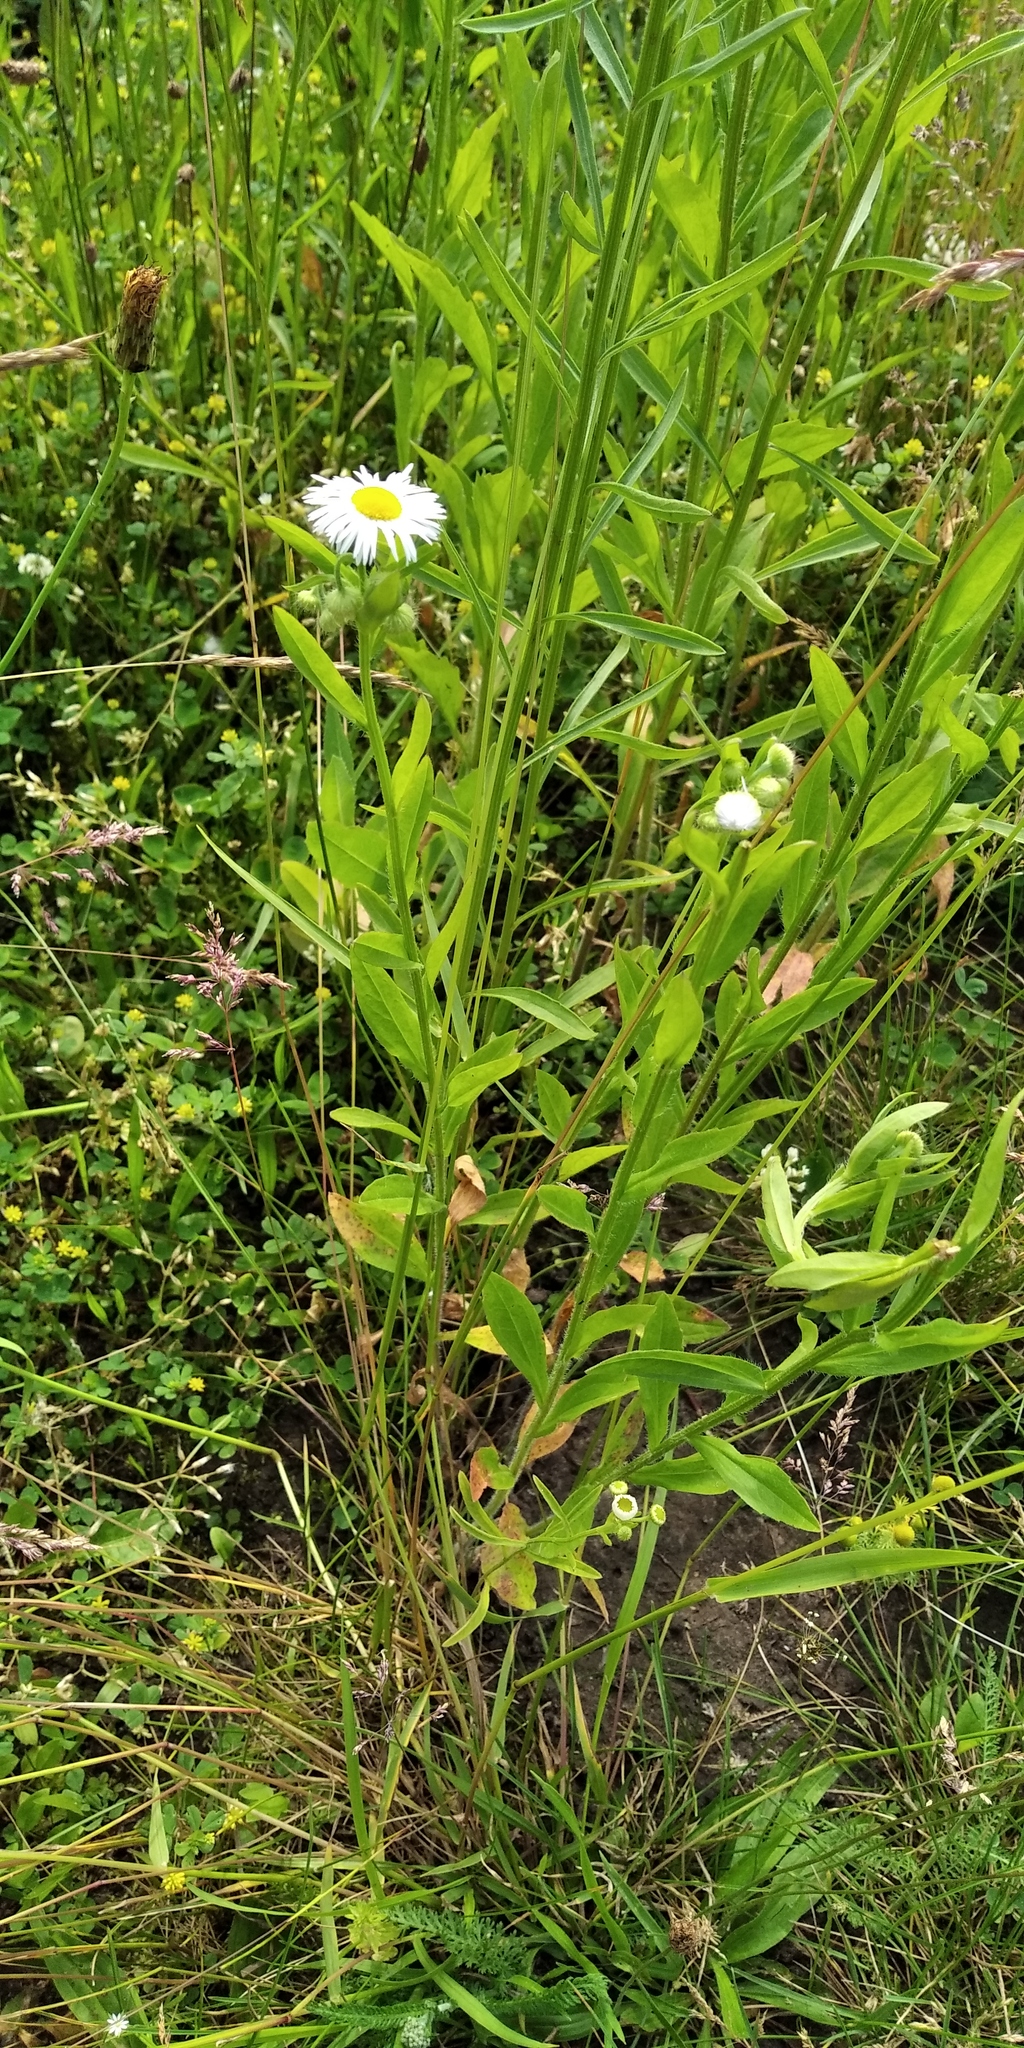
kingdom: Plantae
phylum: Tracheophyta
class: Magnoliopsida
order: Asterales
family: Asteraceae
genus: Erigeron
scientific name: Erigeron annuus
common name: Tall fleabane
